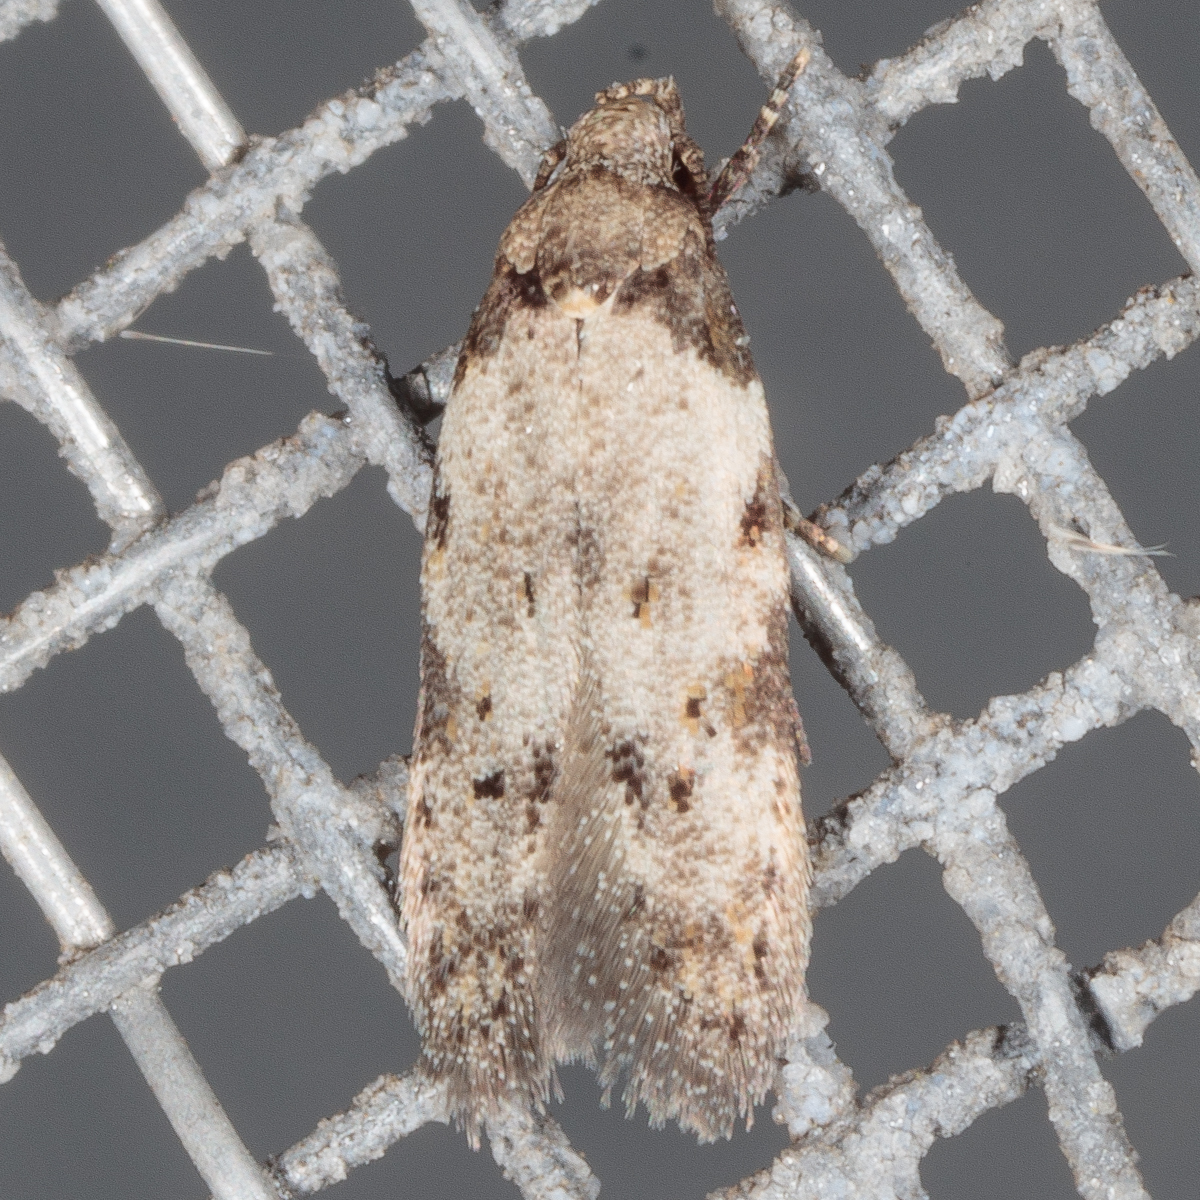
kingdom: Animalia
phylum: Arthropoda
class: Insecta
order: Lepidoptera
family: Autostichidae
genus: Taygete
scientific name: Taygete attributella
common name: Triangle-marked twirler moth
